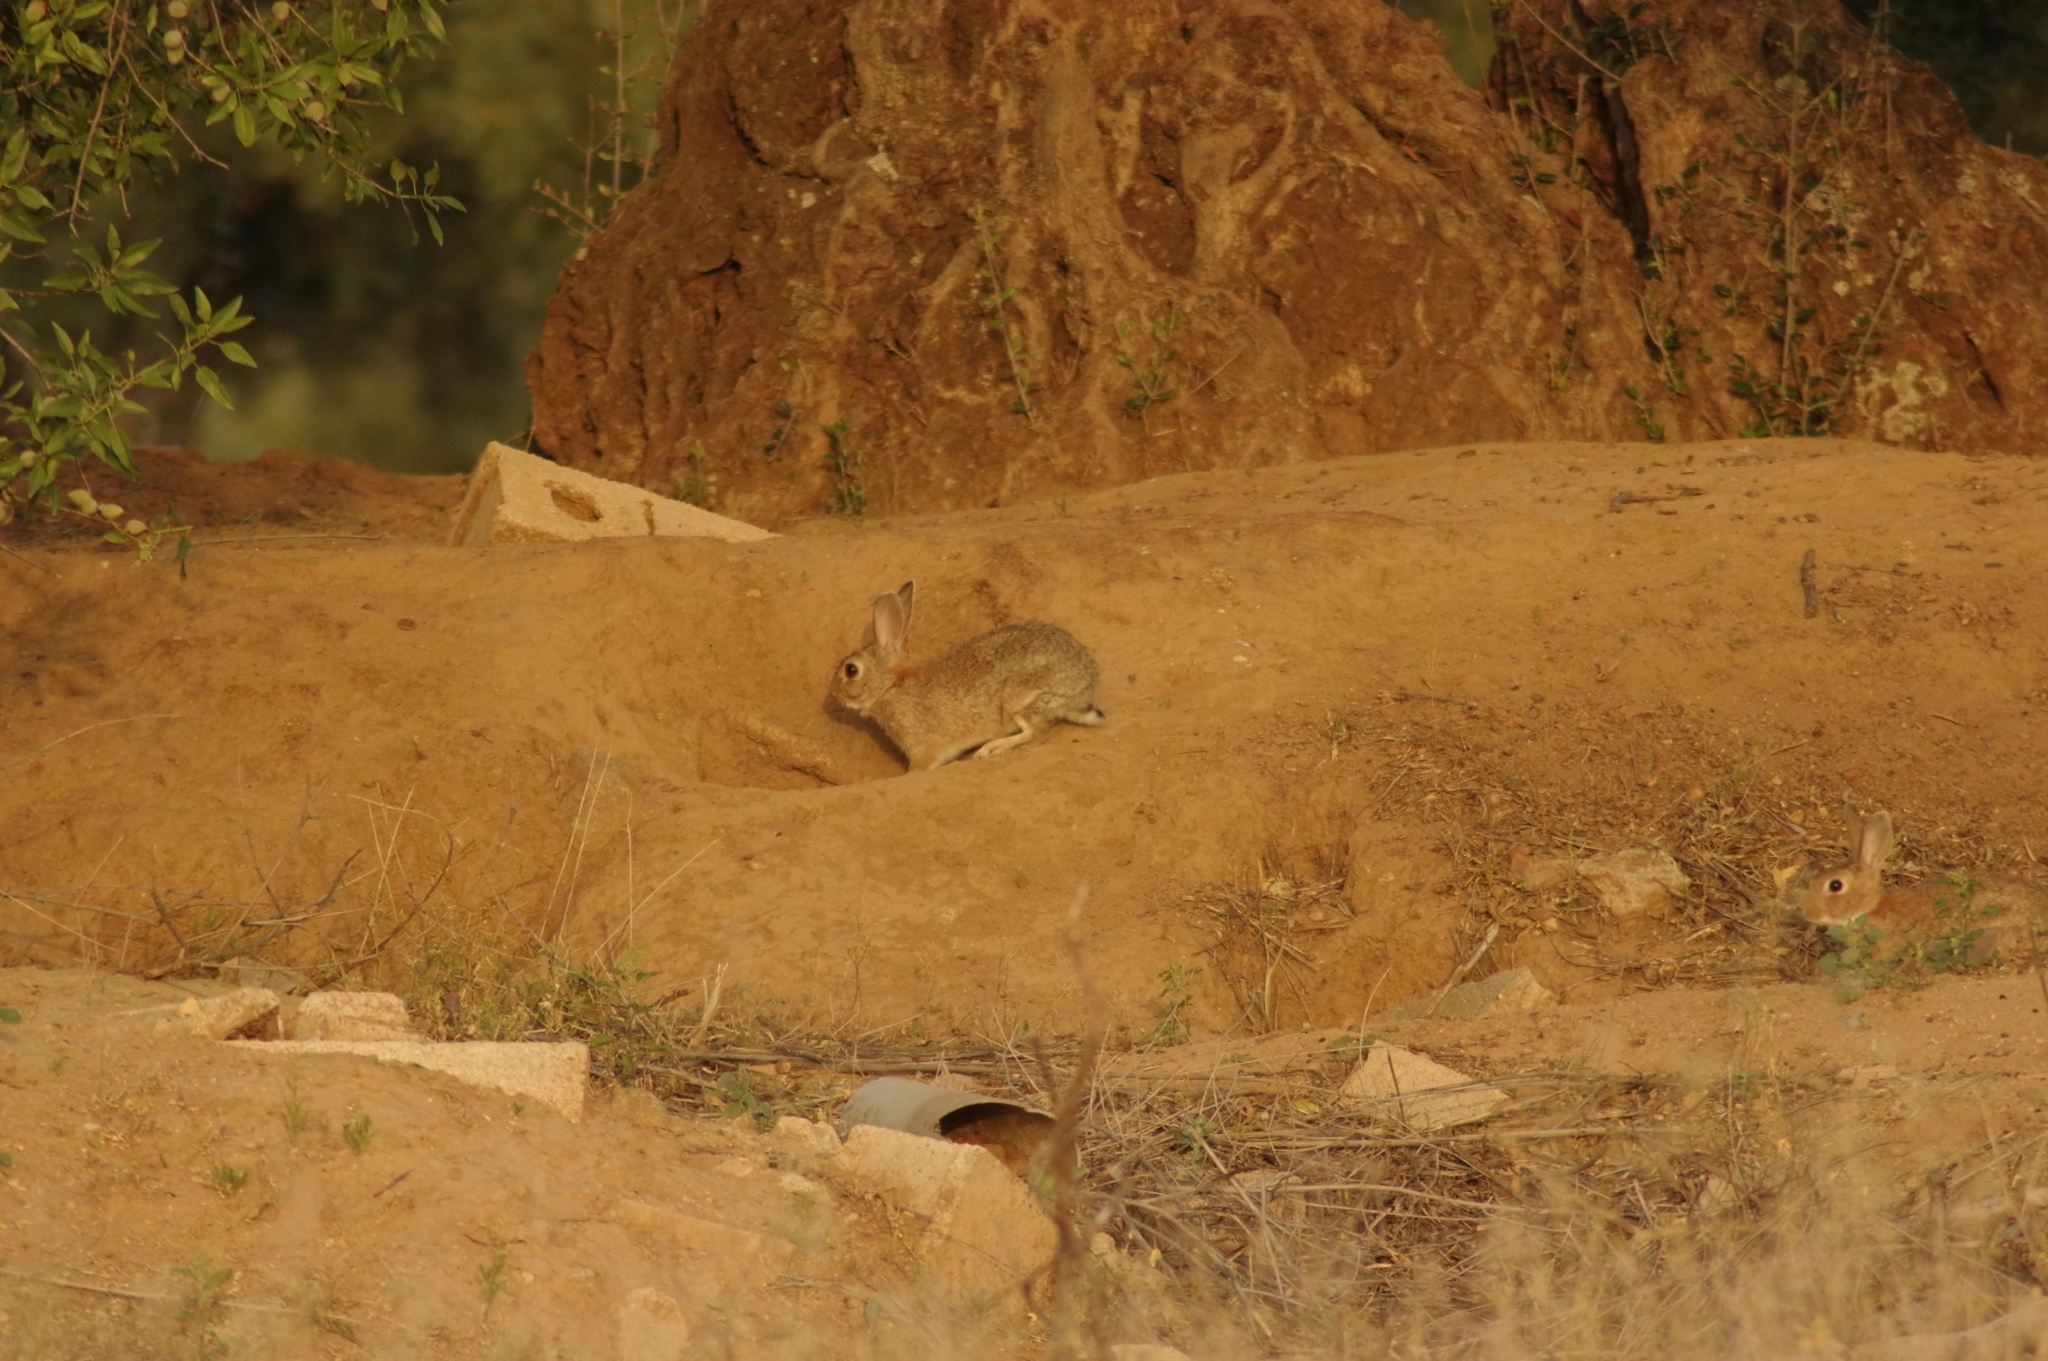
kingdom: Animalia
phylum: Chordata
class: Mammalia
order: Lagomorpha
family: Leporidae
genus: Oryctolagus
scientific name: Oryctolagus cuniculus
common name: European rabbit
